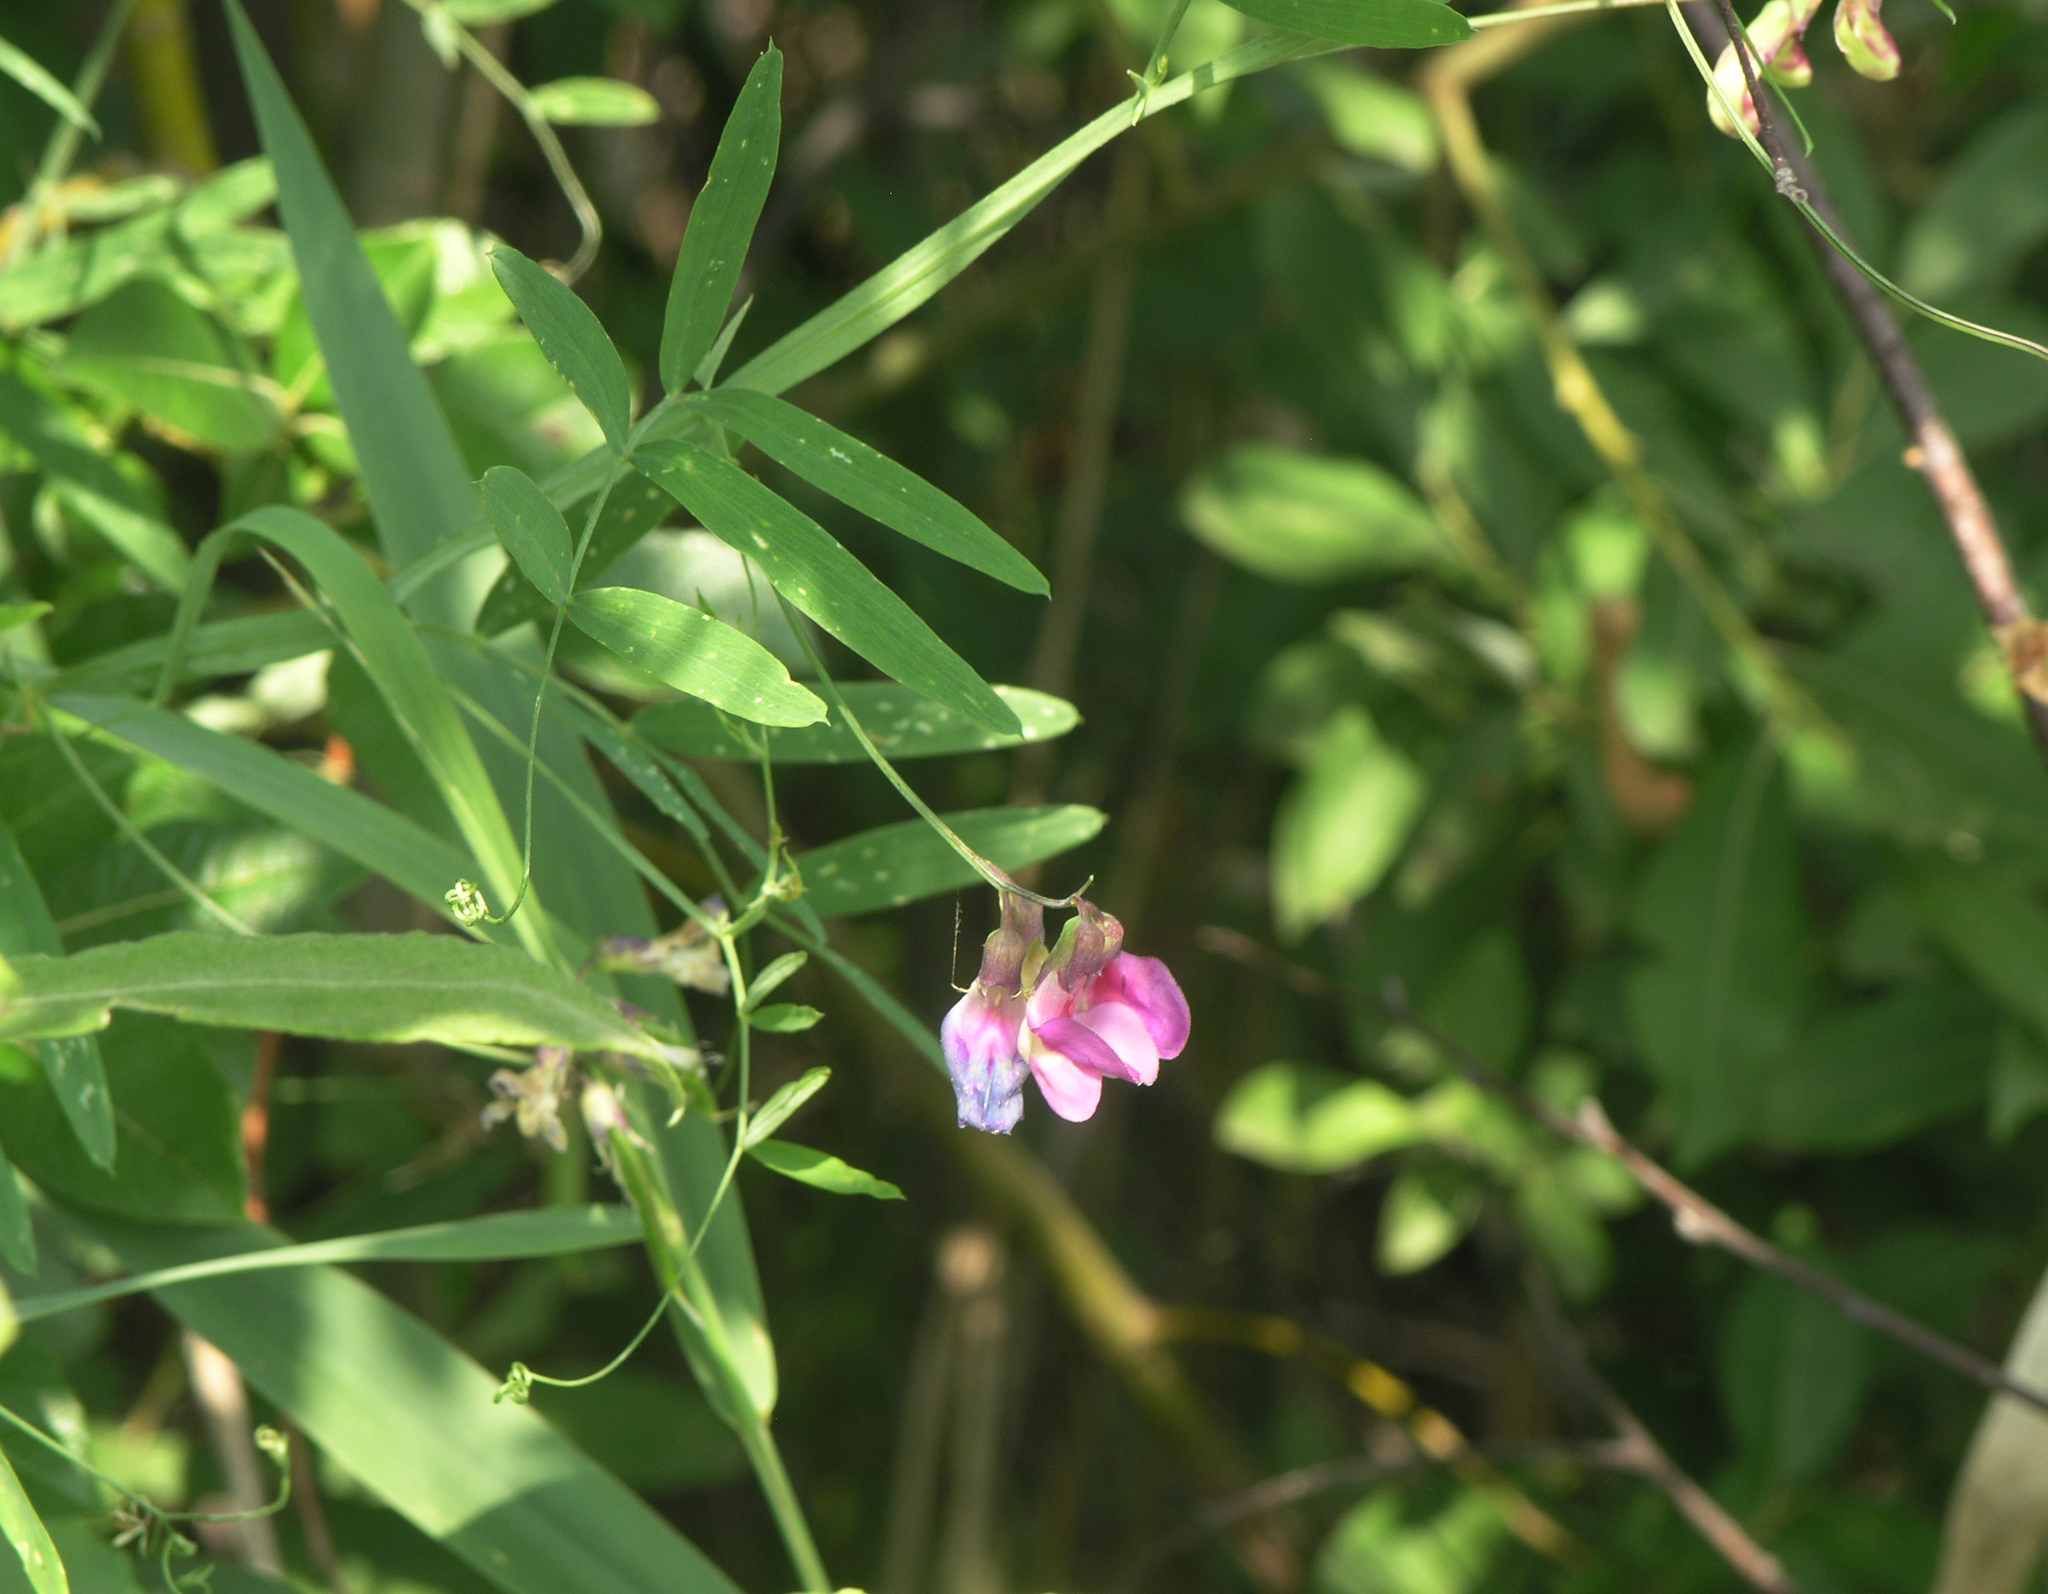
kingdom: Plantae
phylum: Tracheophyta
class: Magnoliopsida
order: Fabales
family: Fabaceae
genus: Lathyrus
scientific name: Lathyrus palustris
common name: Marsh pea
